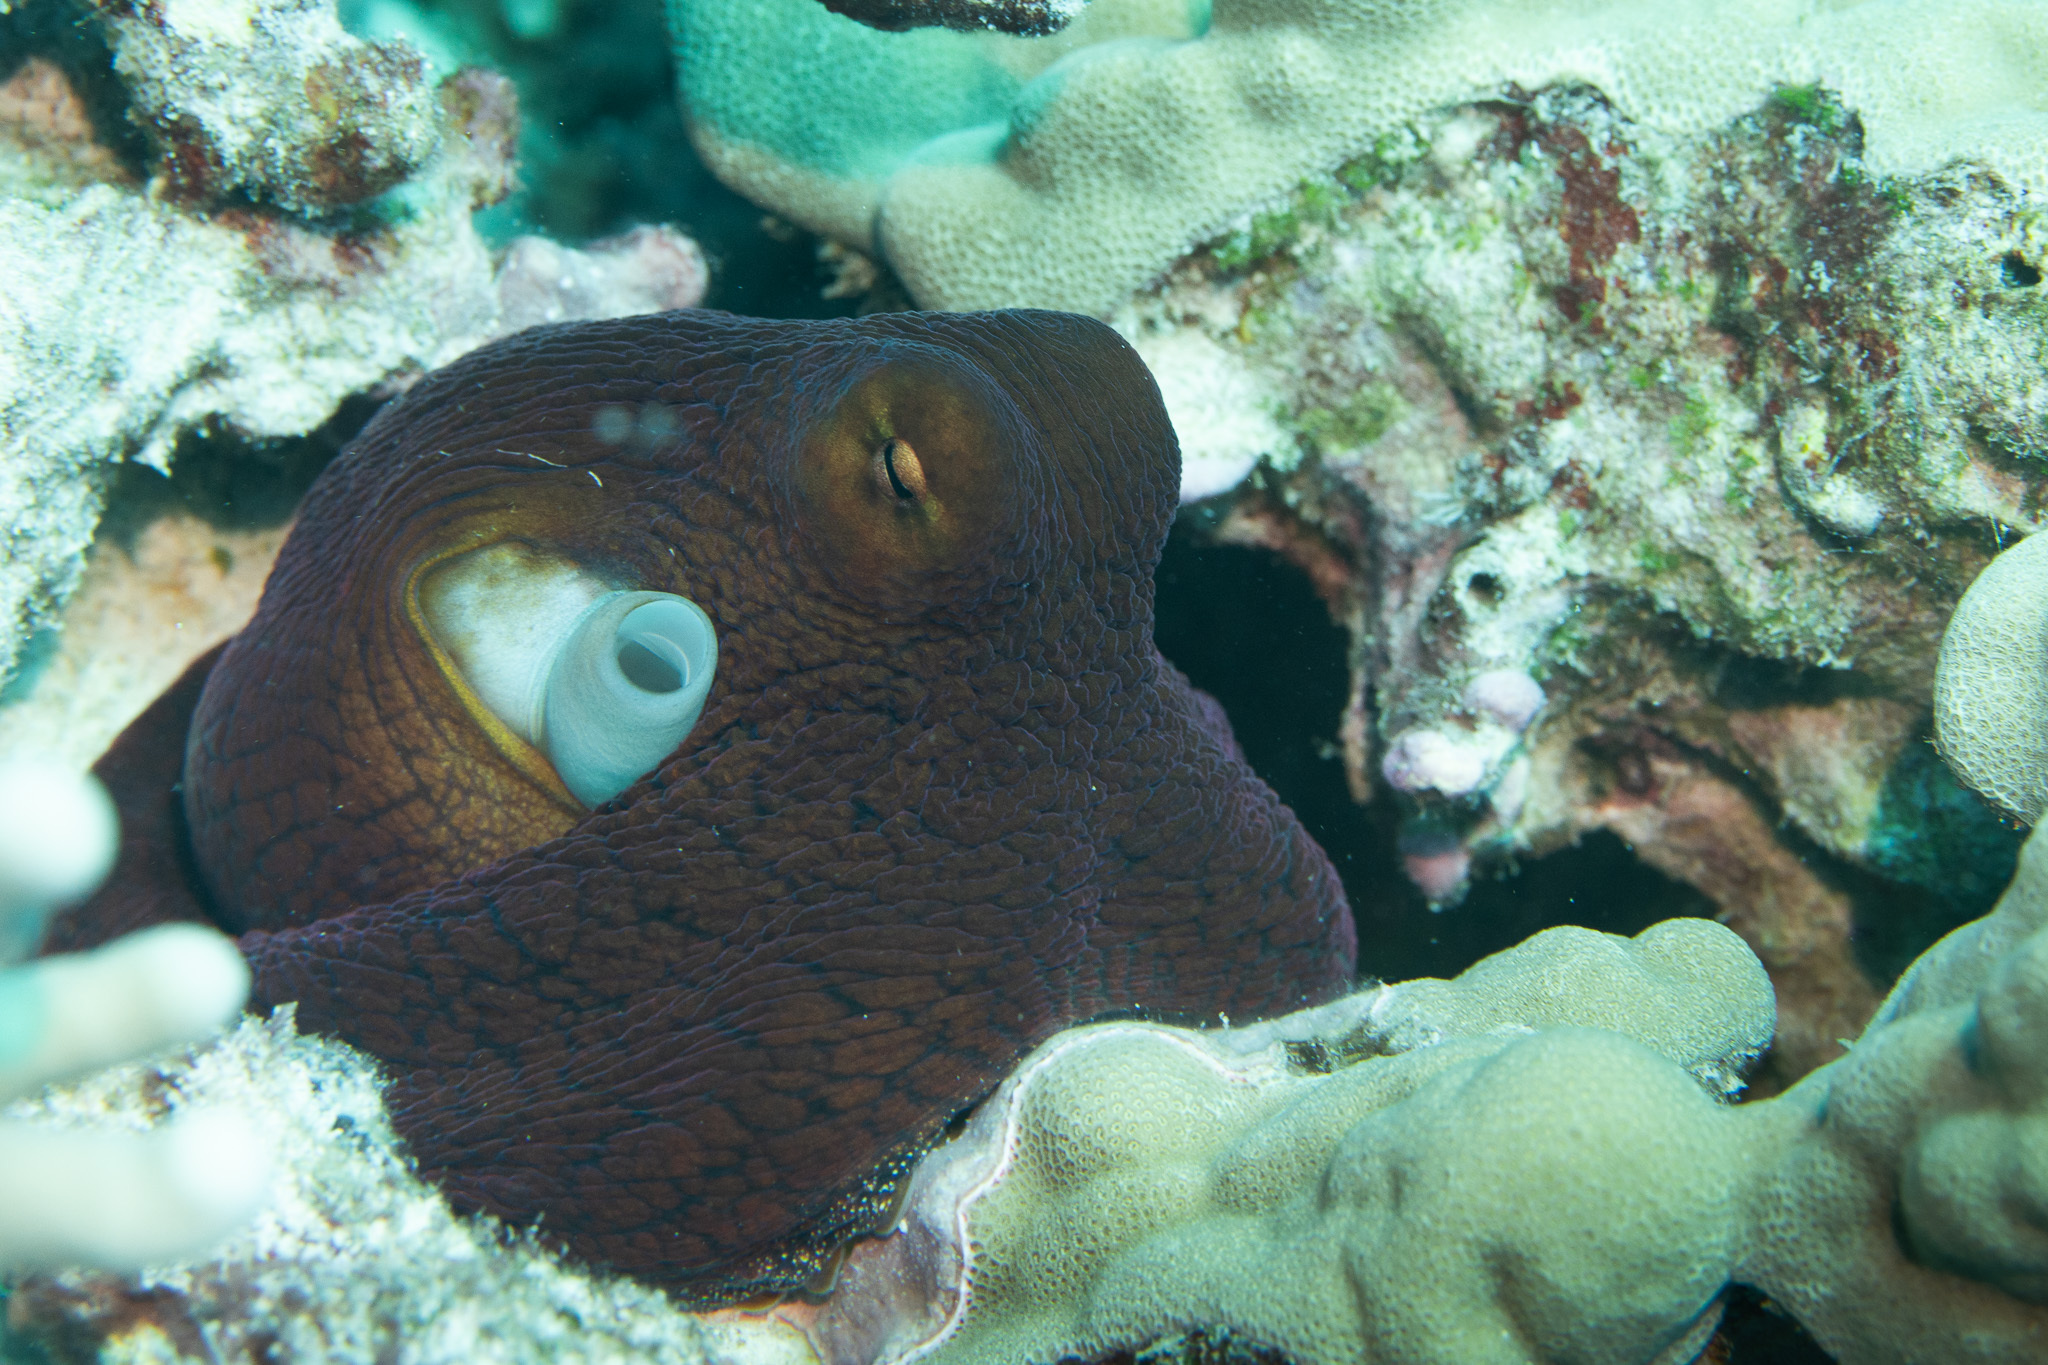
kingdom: Animalia
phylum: Mollusca
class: Cephalopoda
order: Octopoda
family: Octopodidae
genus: Octopus
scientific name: Octopus cyanea
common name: Cyane's octopus
